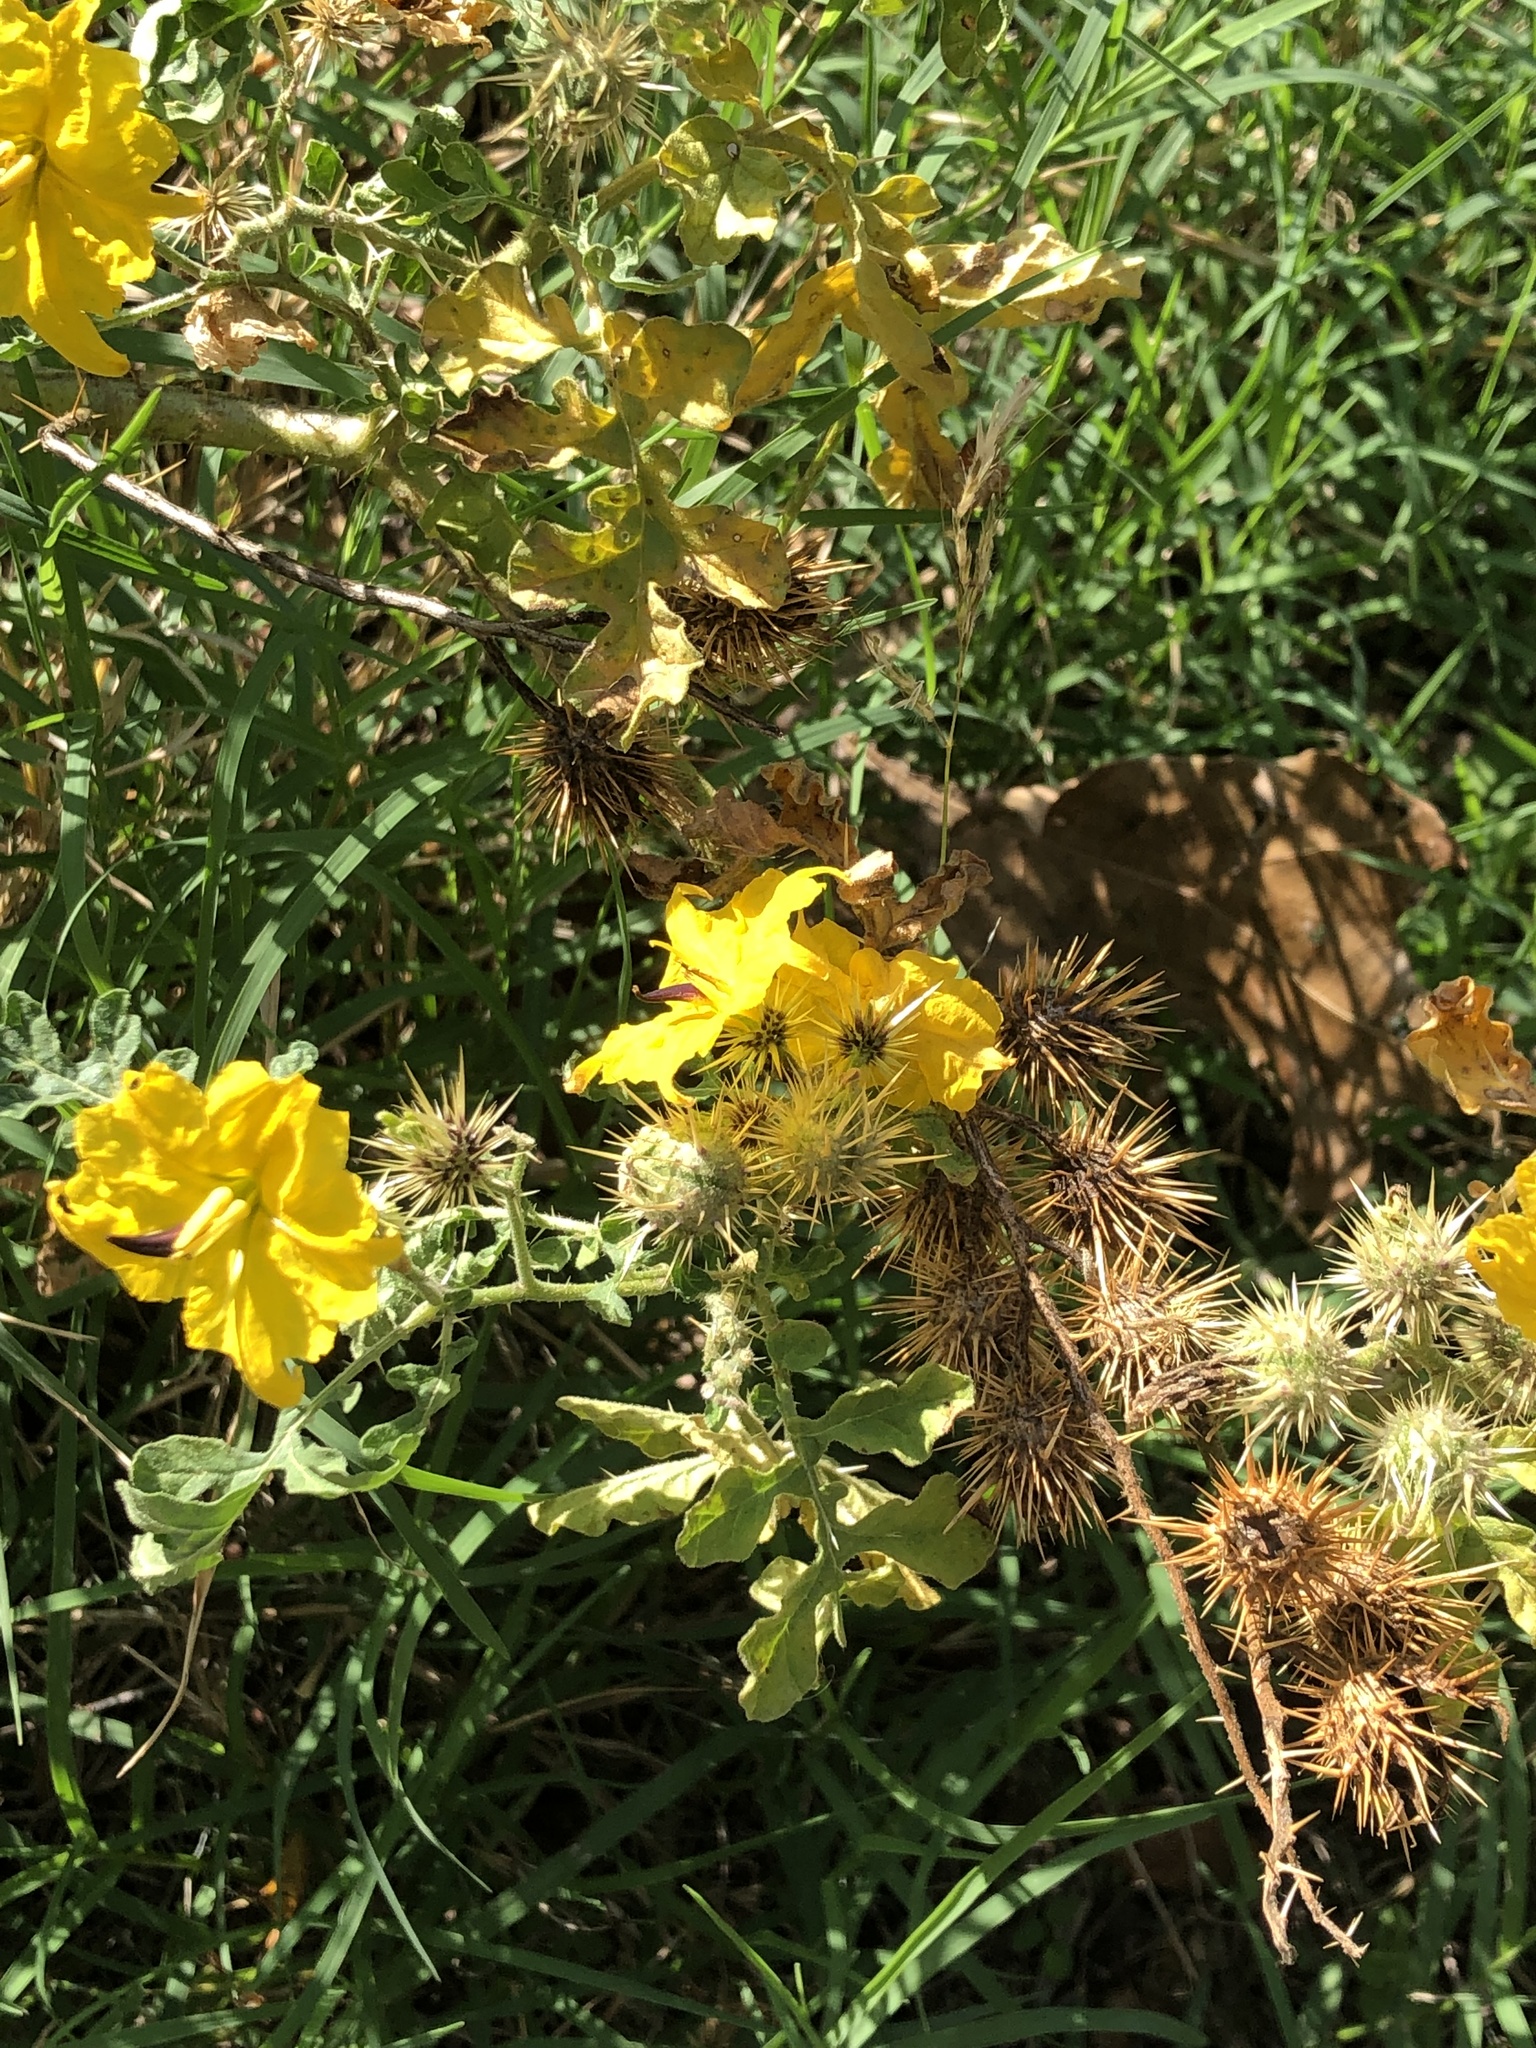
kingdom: Plantae
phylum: Tracheophyta
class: Magnoliopsida
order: Solanales
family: Solanaceae
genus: Solanum
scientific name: Solanum angustifolium
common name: Buffalobur nightshade
